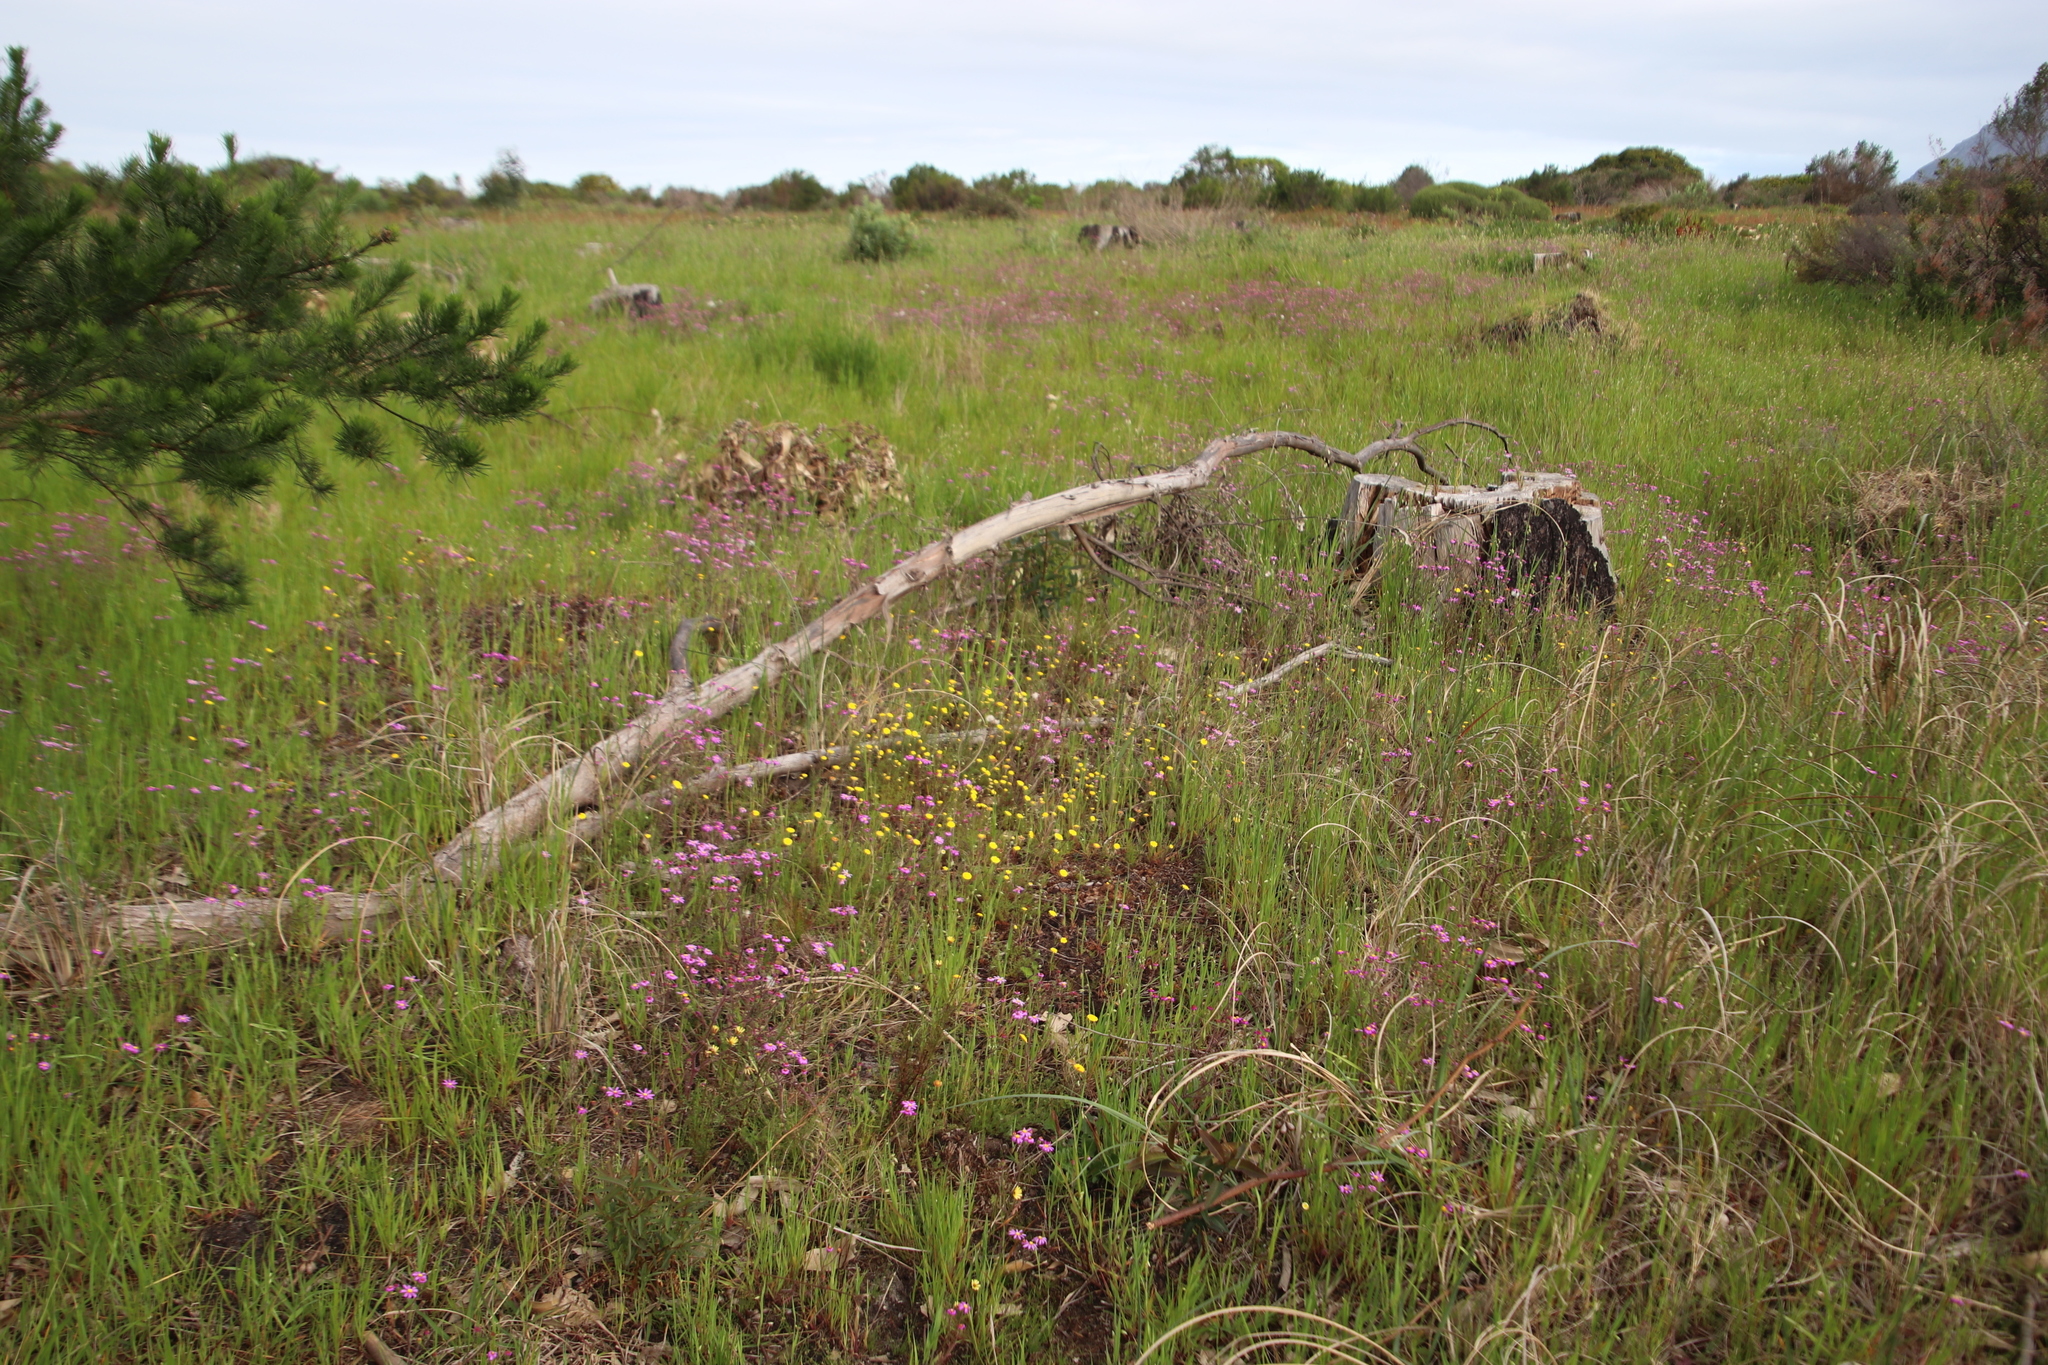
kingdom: Plantae
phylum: Tracheophyta
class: Magnoliopsida
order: Asterales
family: Asteraceae
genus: Cotula
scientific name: Cotula pruinosa
